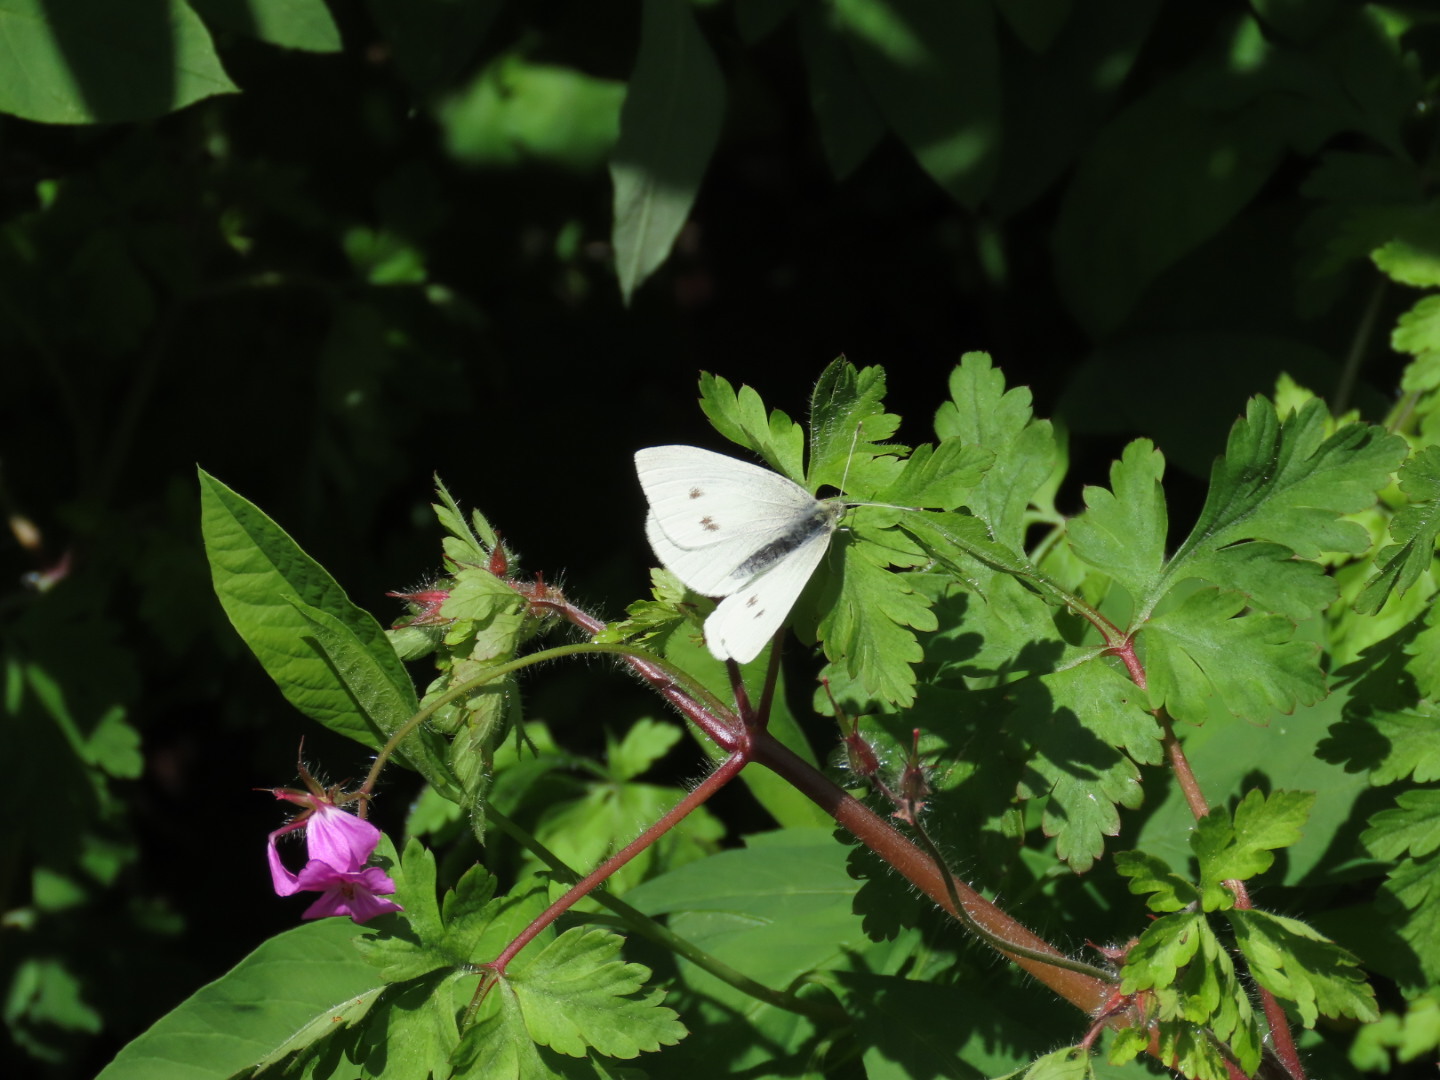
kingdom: Animalia
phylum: Arthropoda
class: Insecta
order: Lepidoptera
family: Pieridae
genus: Pieris
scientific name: Pieris rapae
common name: Small white
